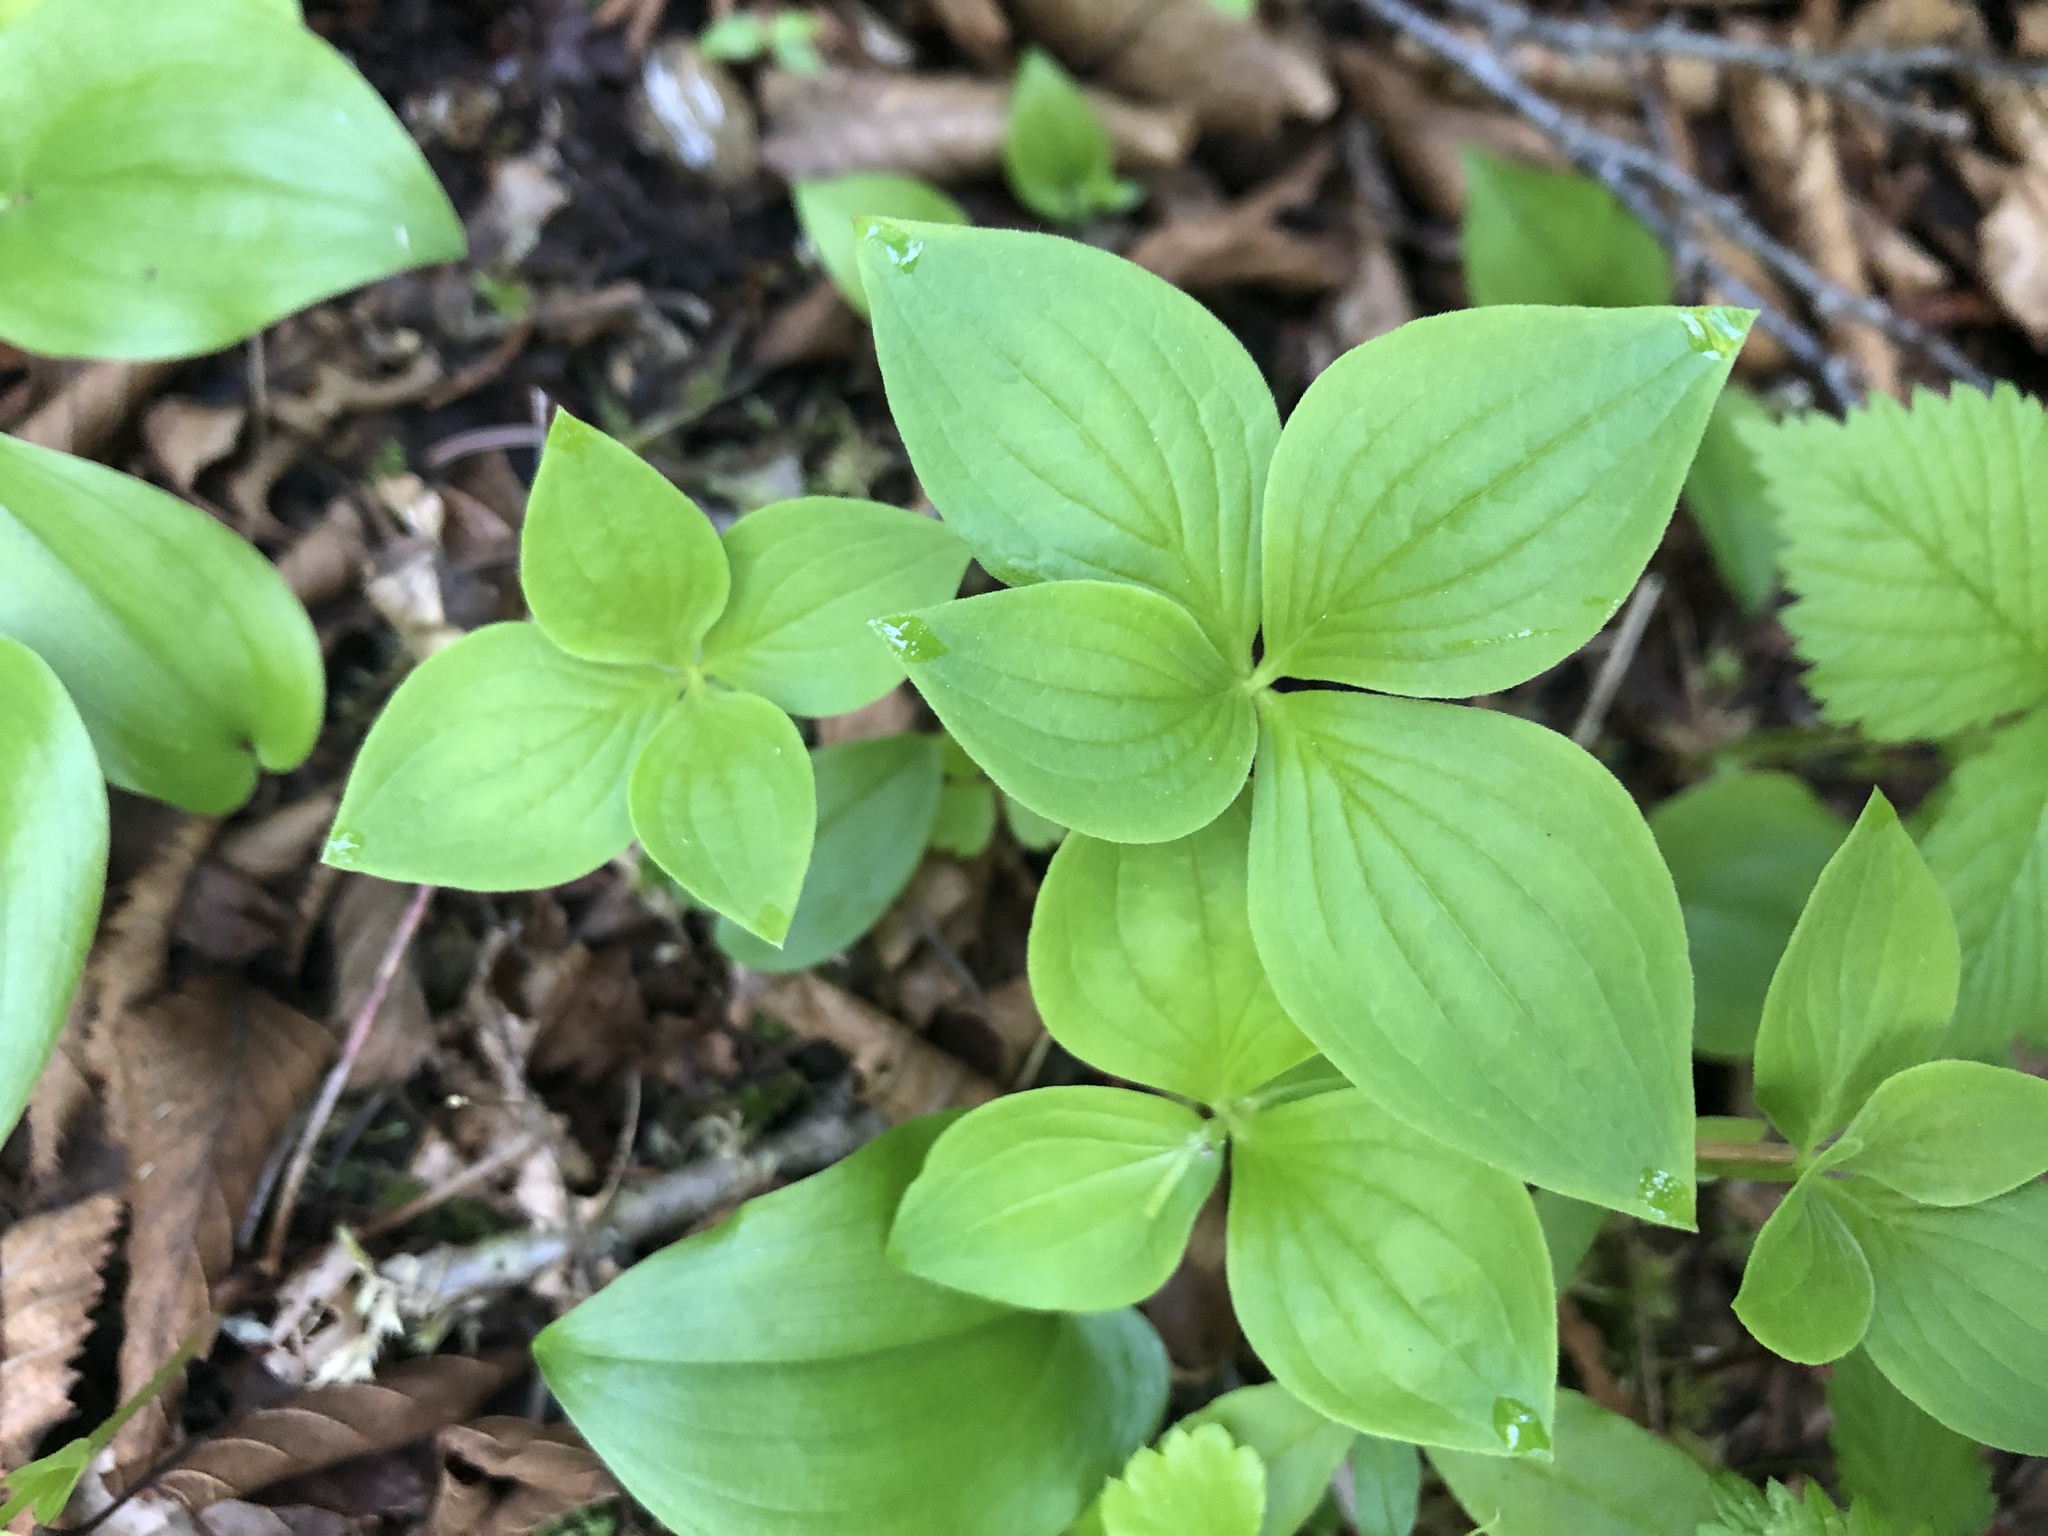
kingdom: Plantae
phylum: Tracheophyta
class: Magnoliopsida
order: Cornales
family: Cornaceae
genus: Cornus
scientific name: Cornus canadensis
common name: Creeping dogwood
